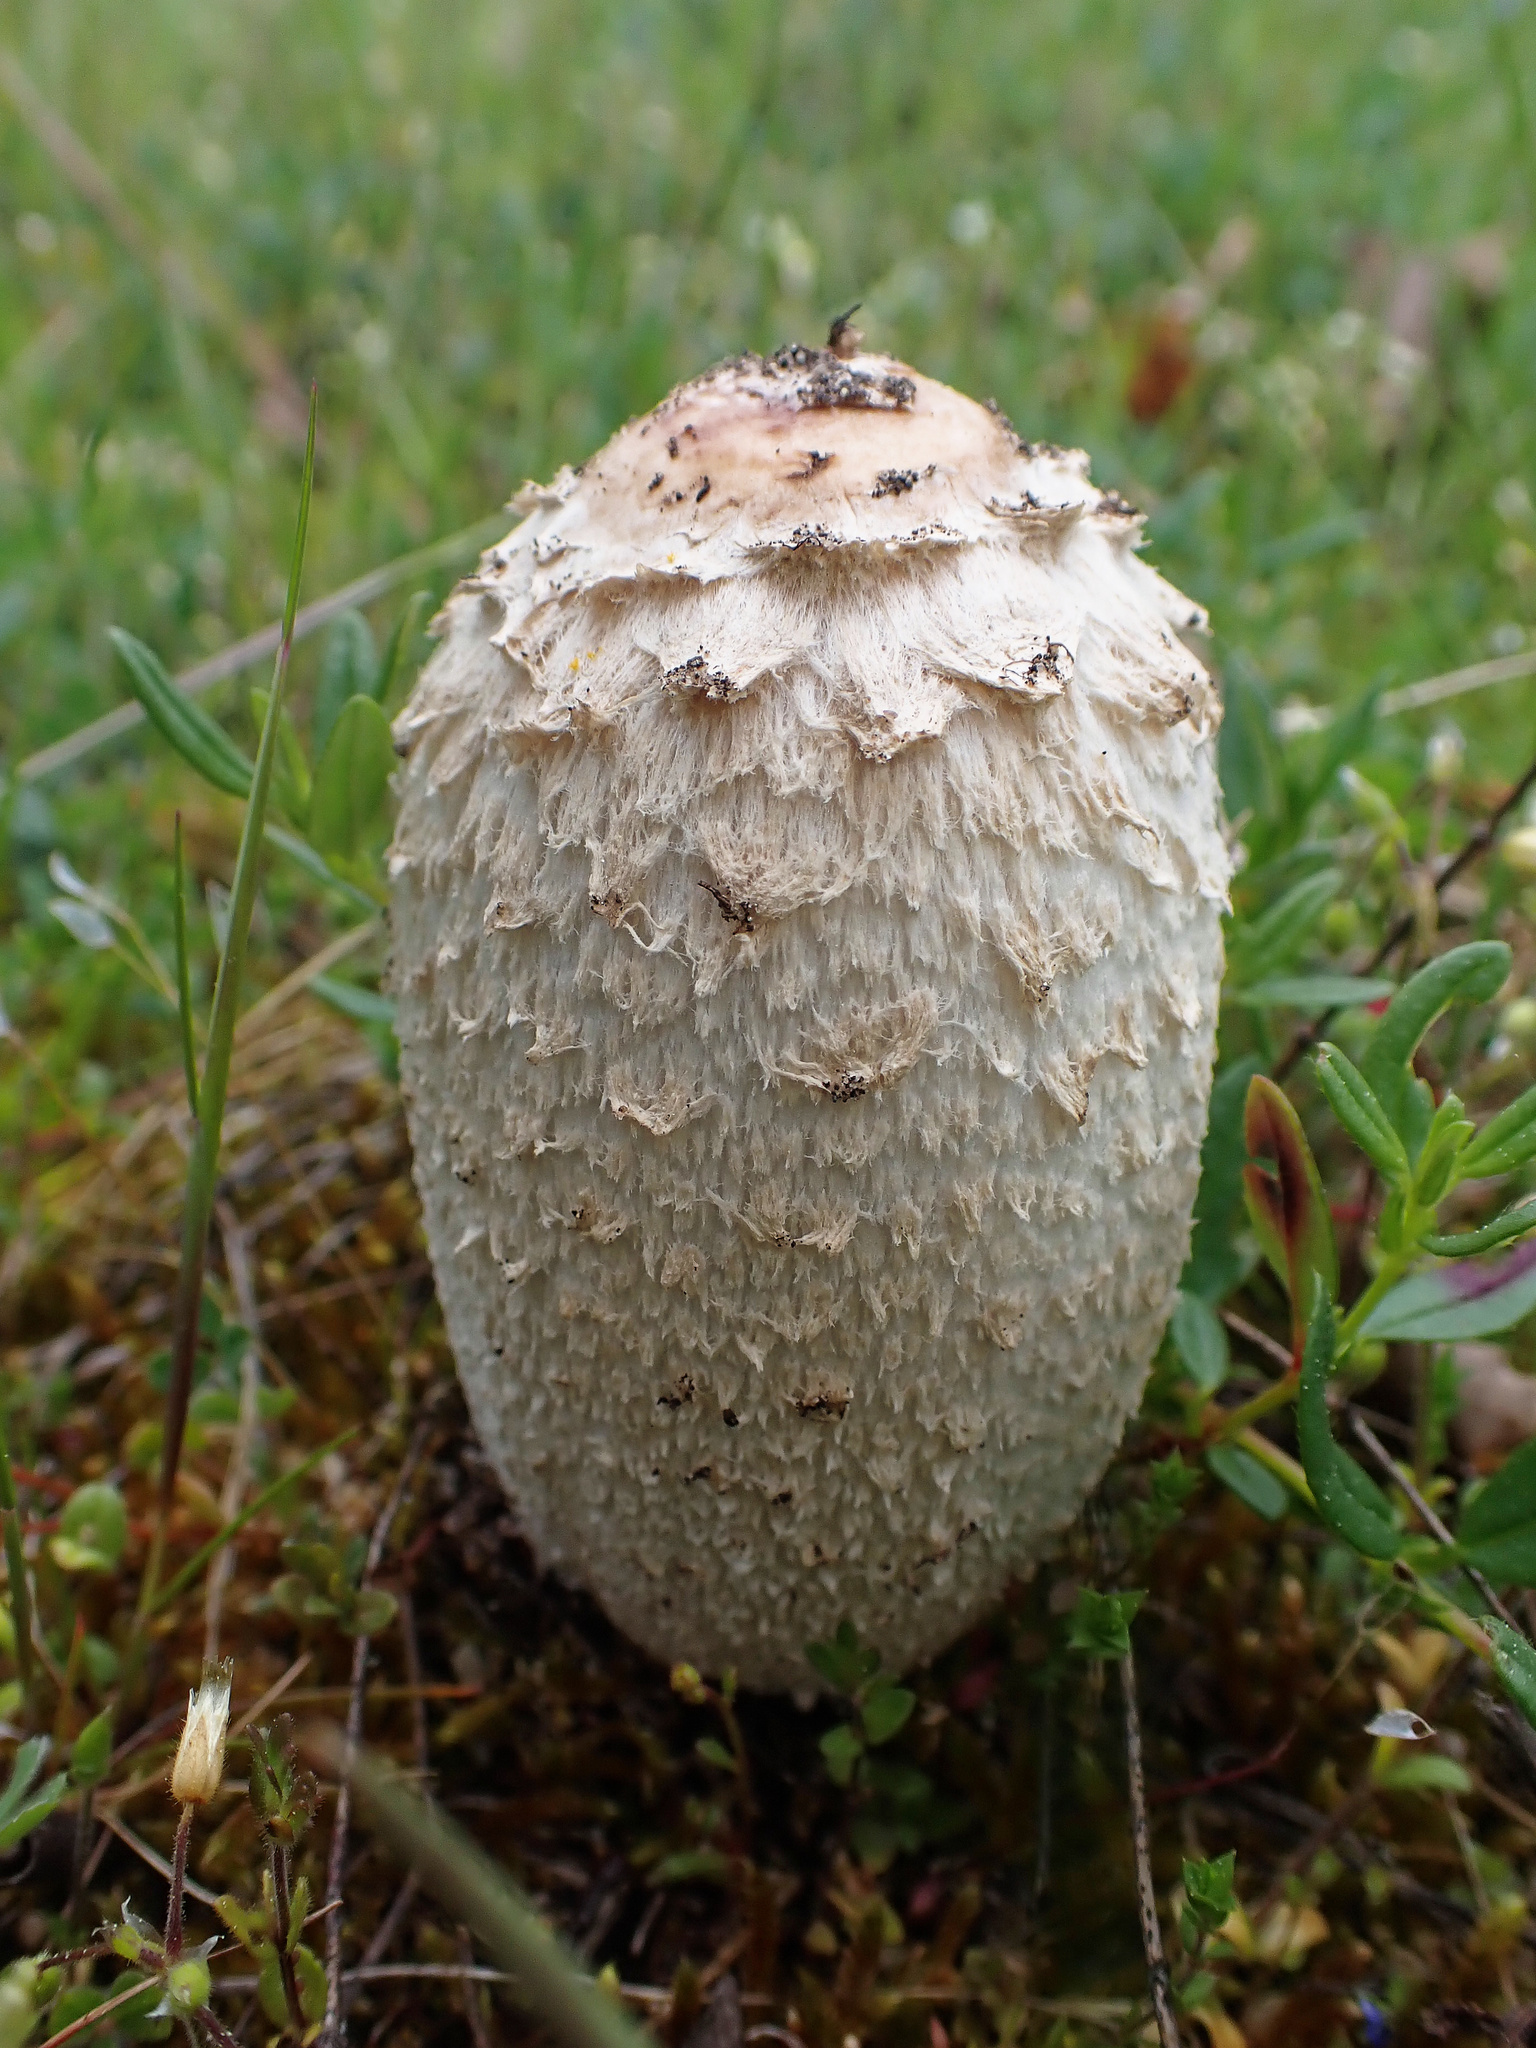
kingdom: Fungi
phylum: Basidiomycota
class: Agaricomycetes
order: Agaricales
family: Agaricaceae
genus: Coprinus
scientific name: Coprinus comatus
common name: Lawyer's wig
